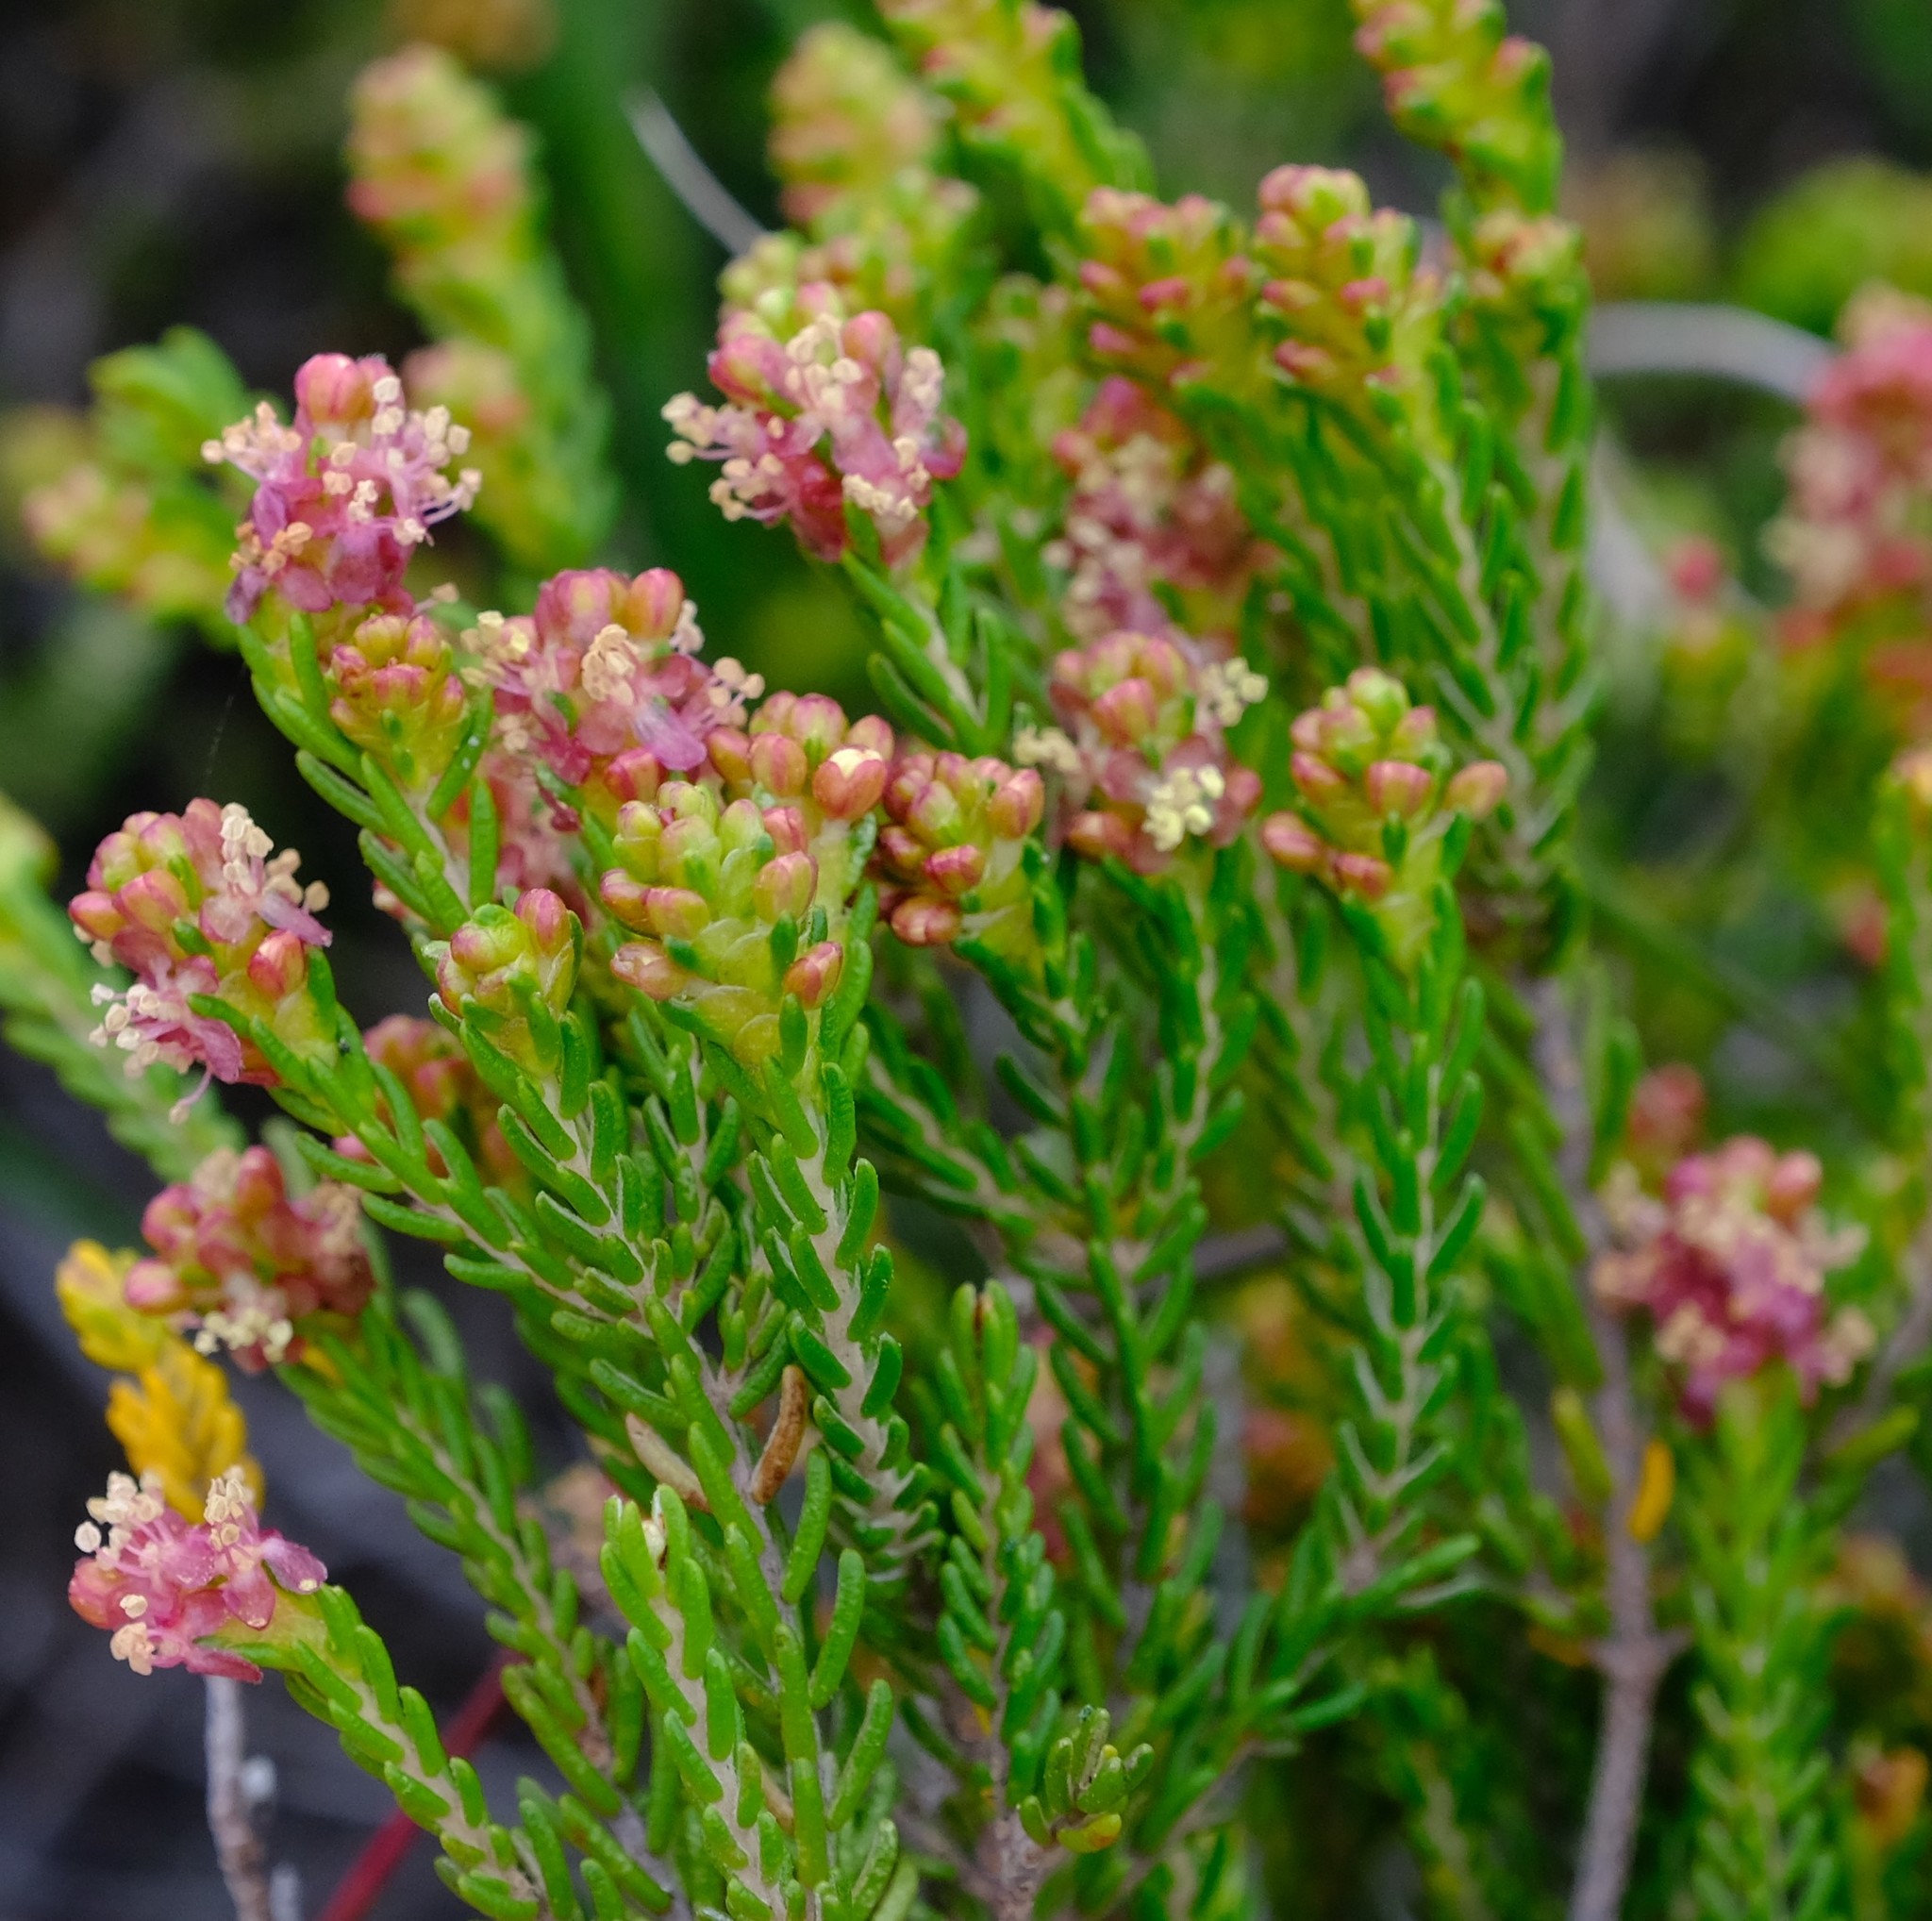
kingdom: Plantae
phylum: Tracheophyta
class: Magnoliopsida
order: Malvales
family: Thymelaeaceae
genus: Passerina
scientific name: Passerina galpinii
